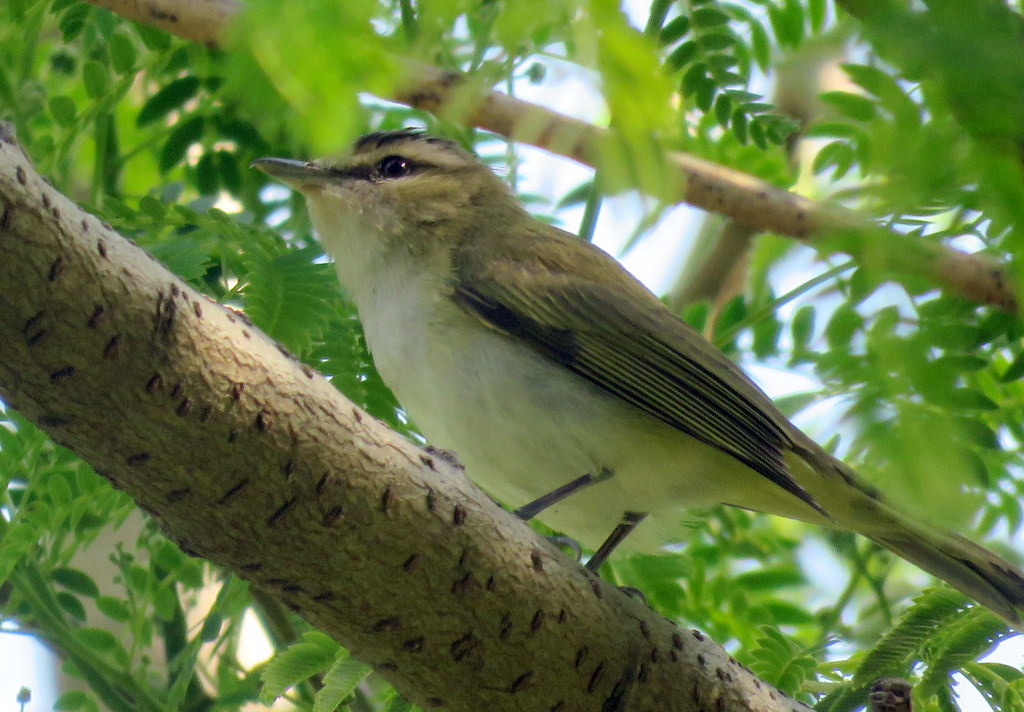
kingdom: Animalia
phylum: Chordata
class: Aves
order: Passeriformes
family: Vireonidae
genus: Vireo
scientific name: Vireo olivaceus
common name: Red-eyed vireo
